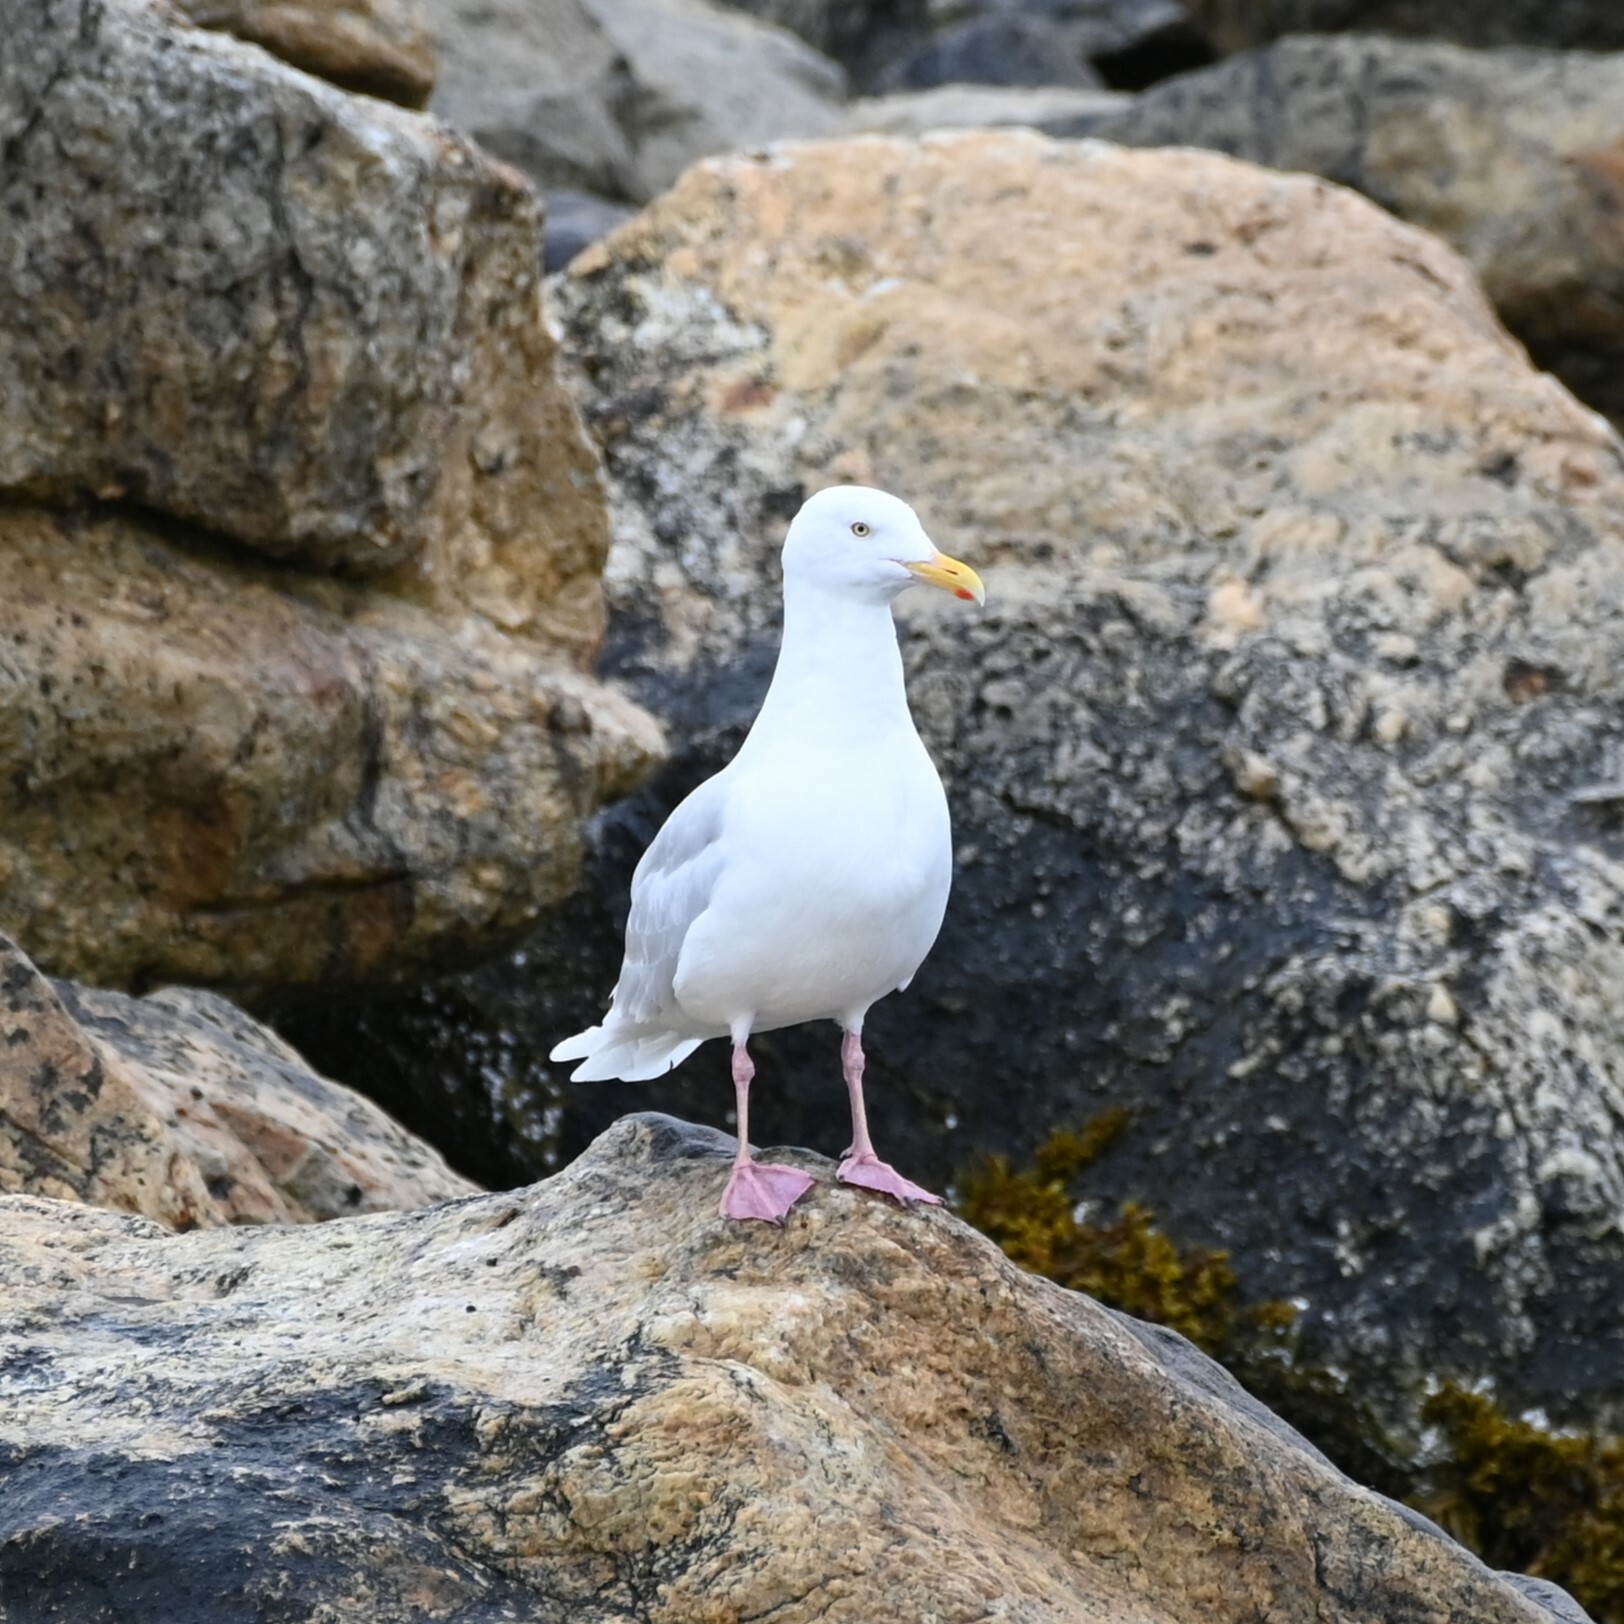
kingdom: Animalia
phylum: Chordata
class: Aves
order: Charadriiformes
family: Laridae
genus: Larus
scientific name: Larus hyperboreus
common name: Glaucous gull
